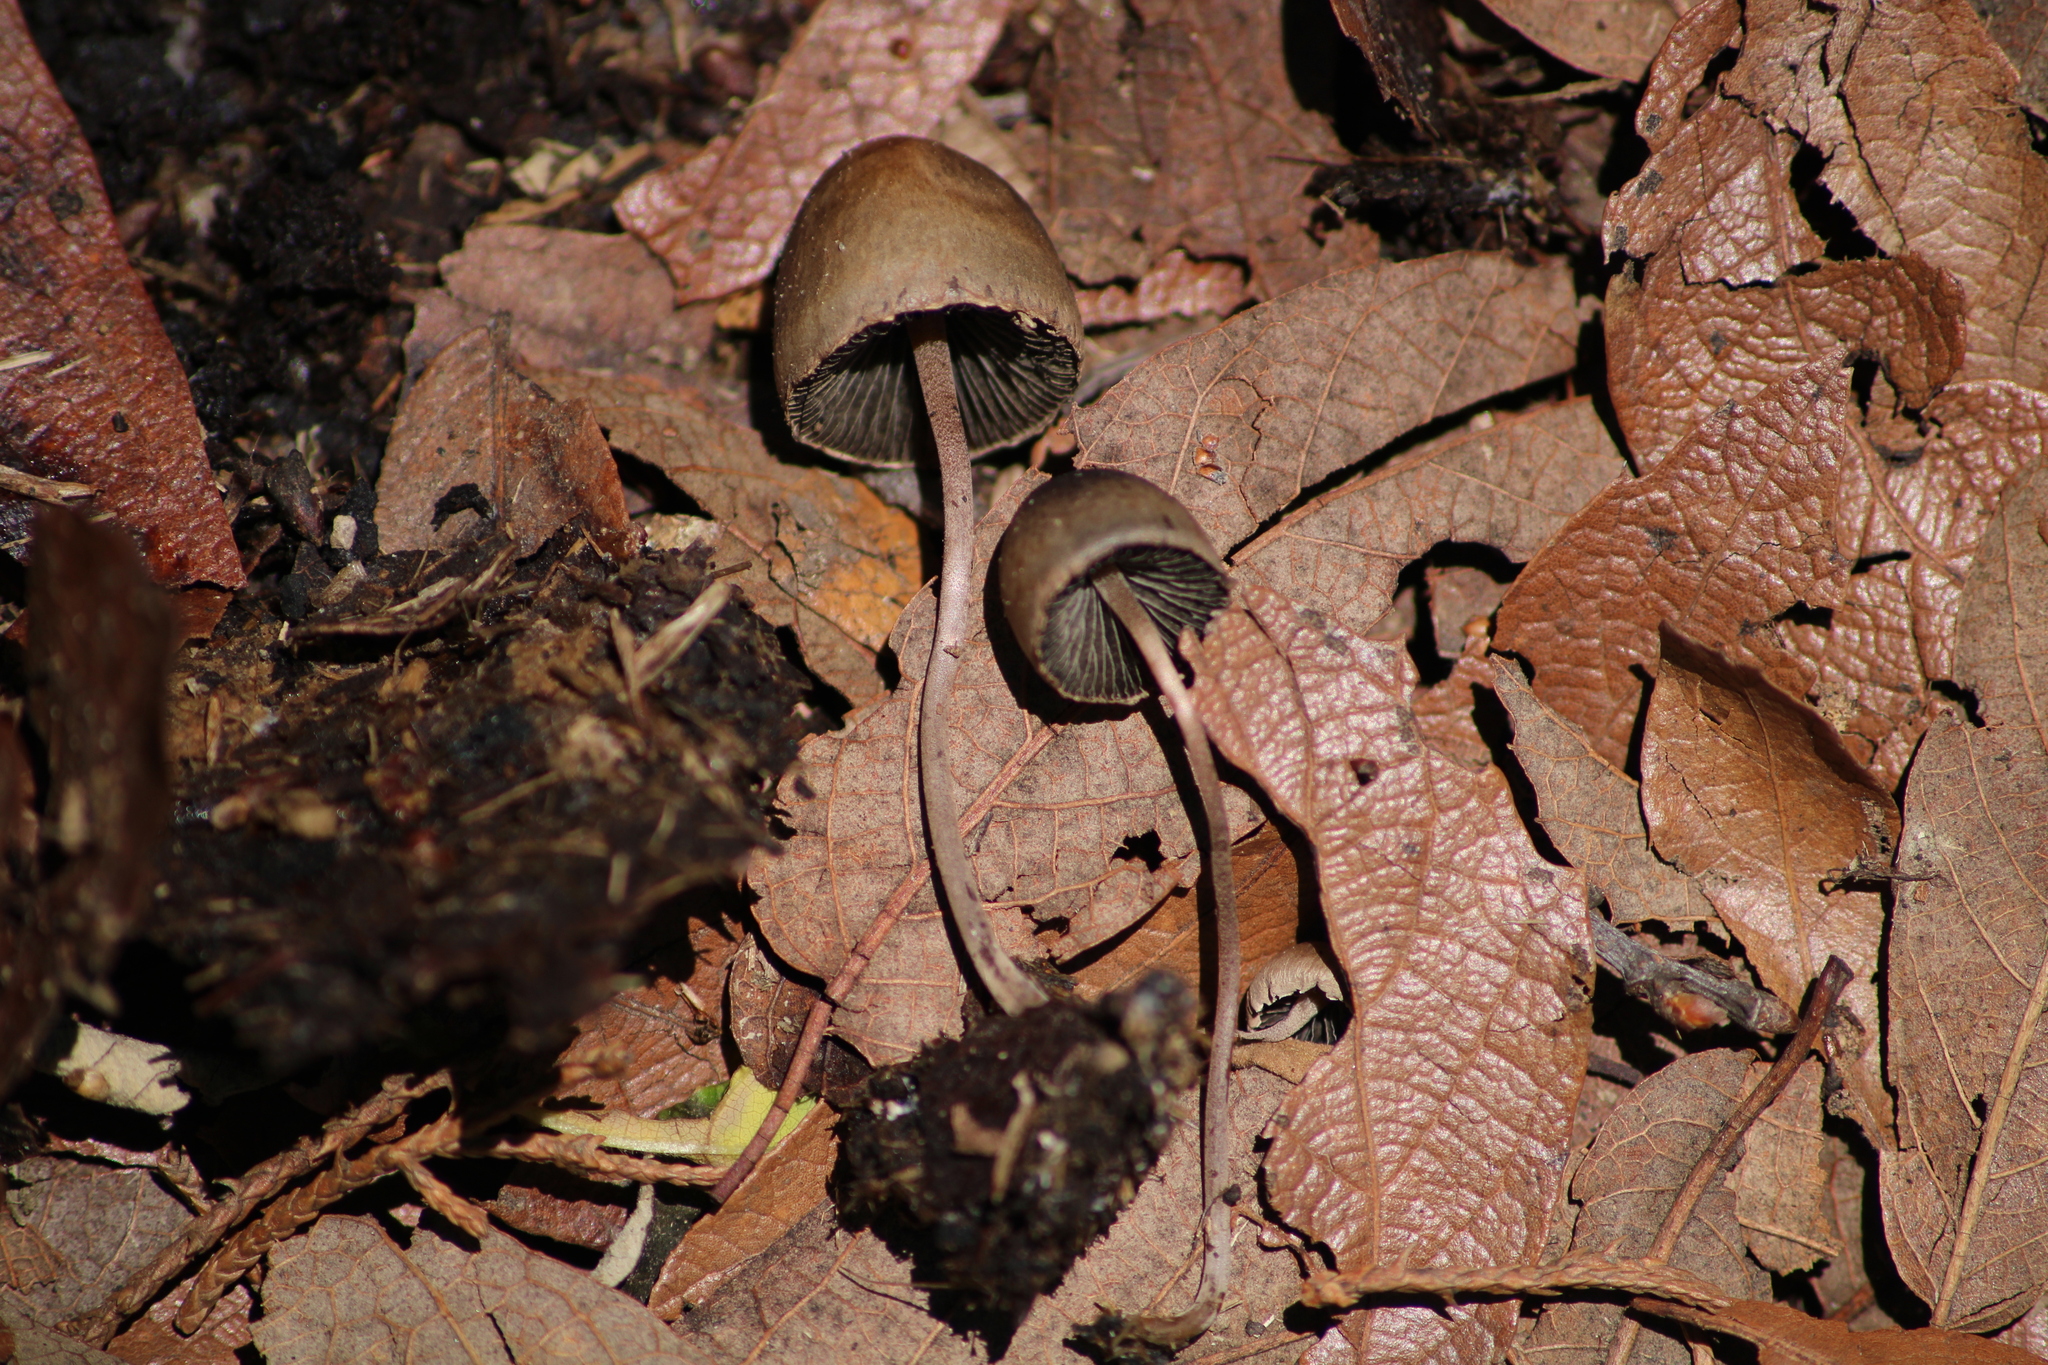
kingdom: Fungi
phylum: Basidiomycota
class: Agaricomycetes
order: Agaricales
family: Bolbitiaceae
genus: Panaeolus
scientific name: Panaeolus papilionaceus
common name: Petticoat mottlegill
